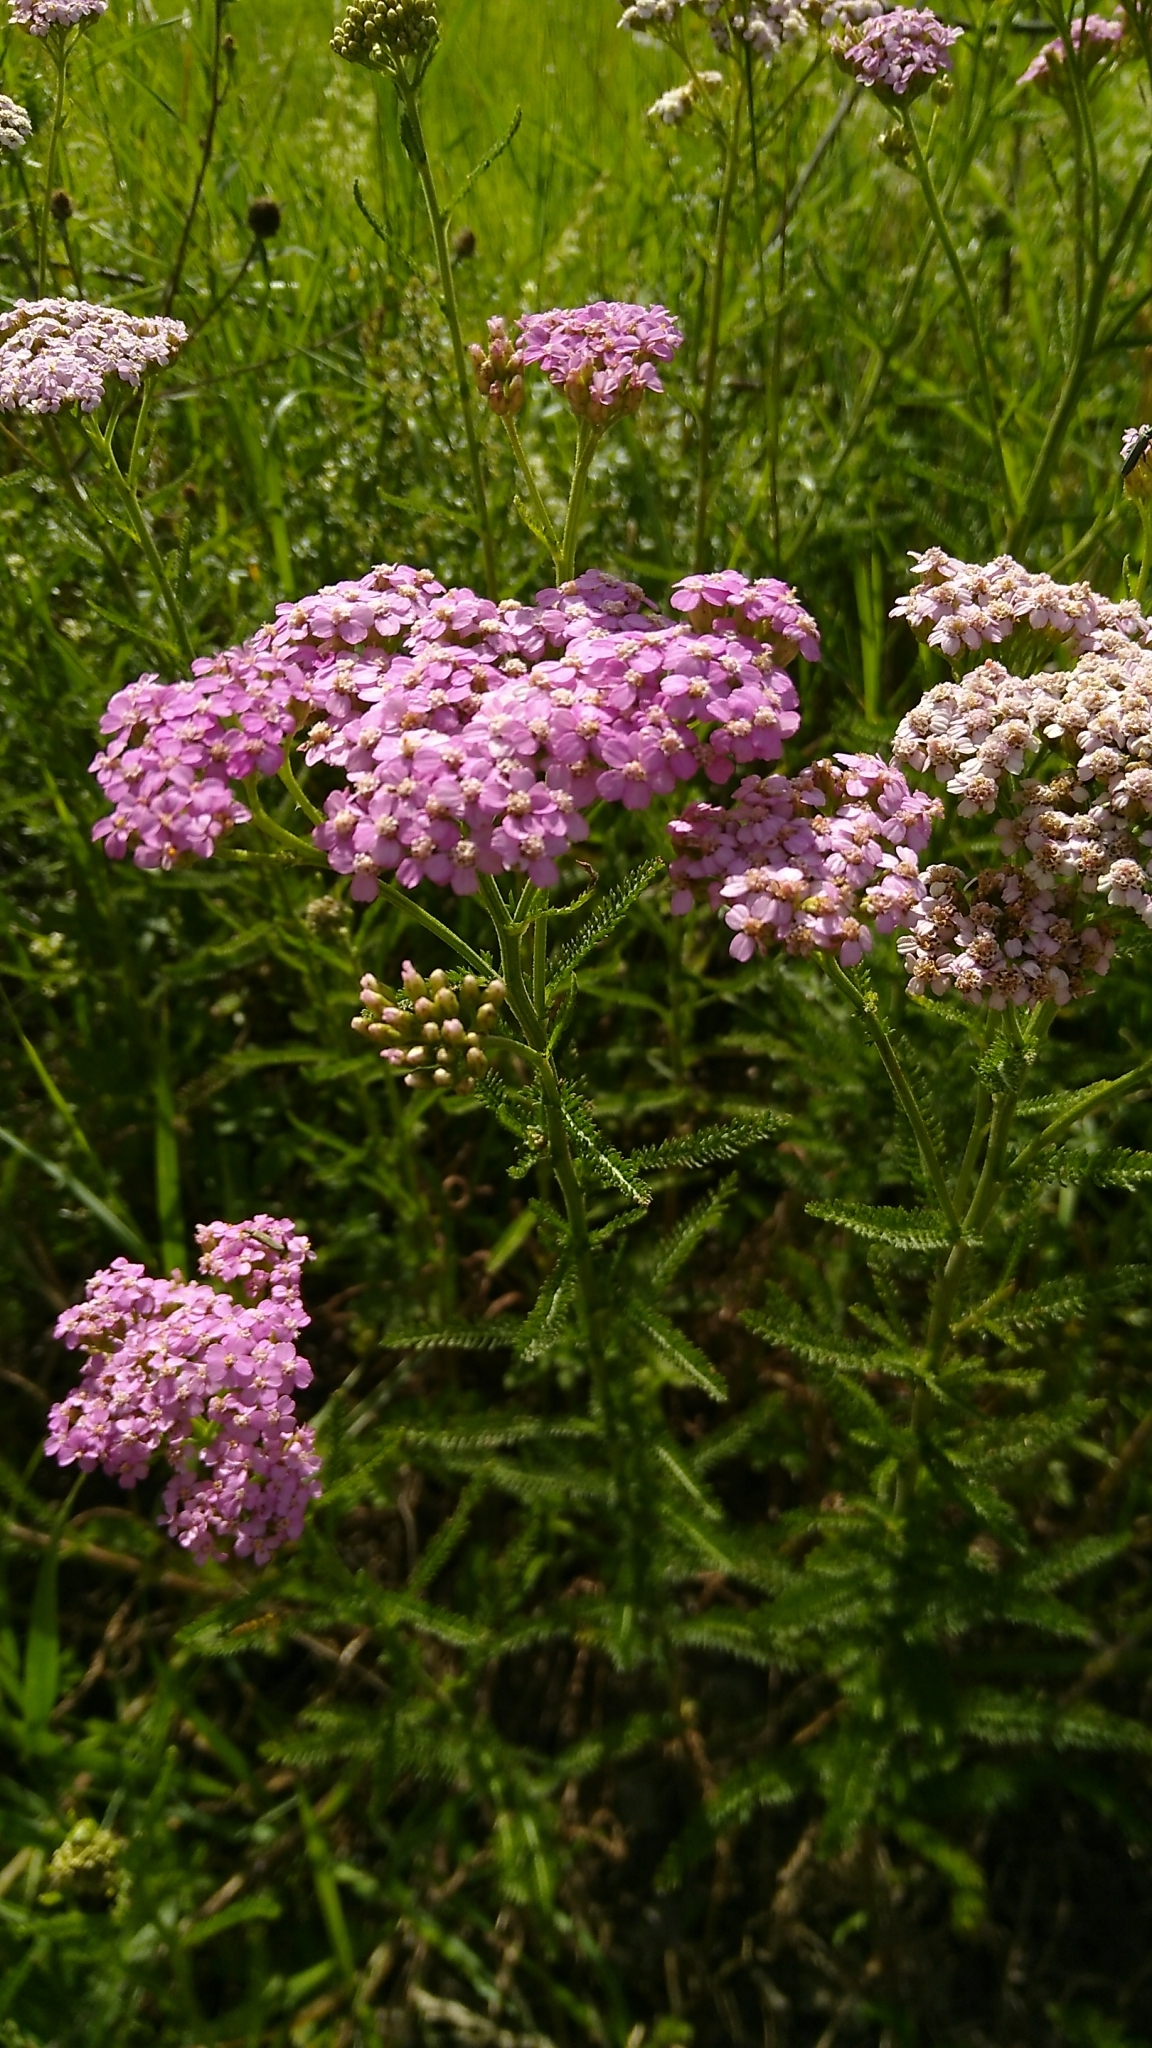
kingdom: Plantae
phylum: Tracheophyta
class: Magnoliopsida
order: Asterales
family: Asteraceae
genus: Achillea
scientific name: Achillea millefolium
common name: Yarrow
